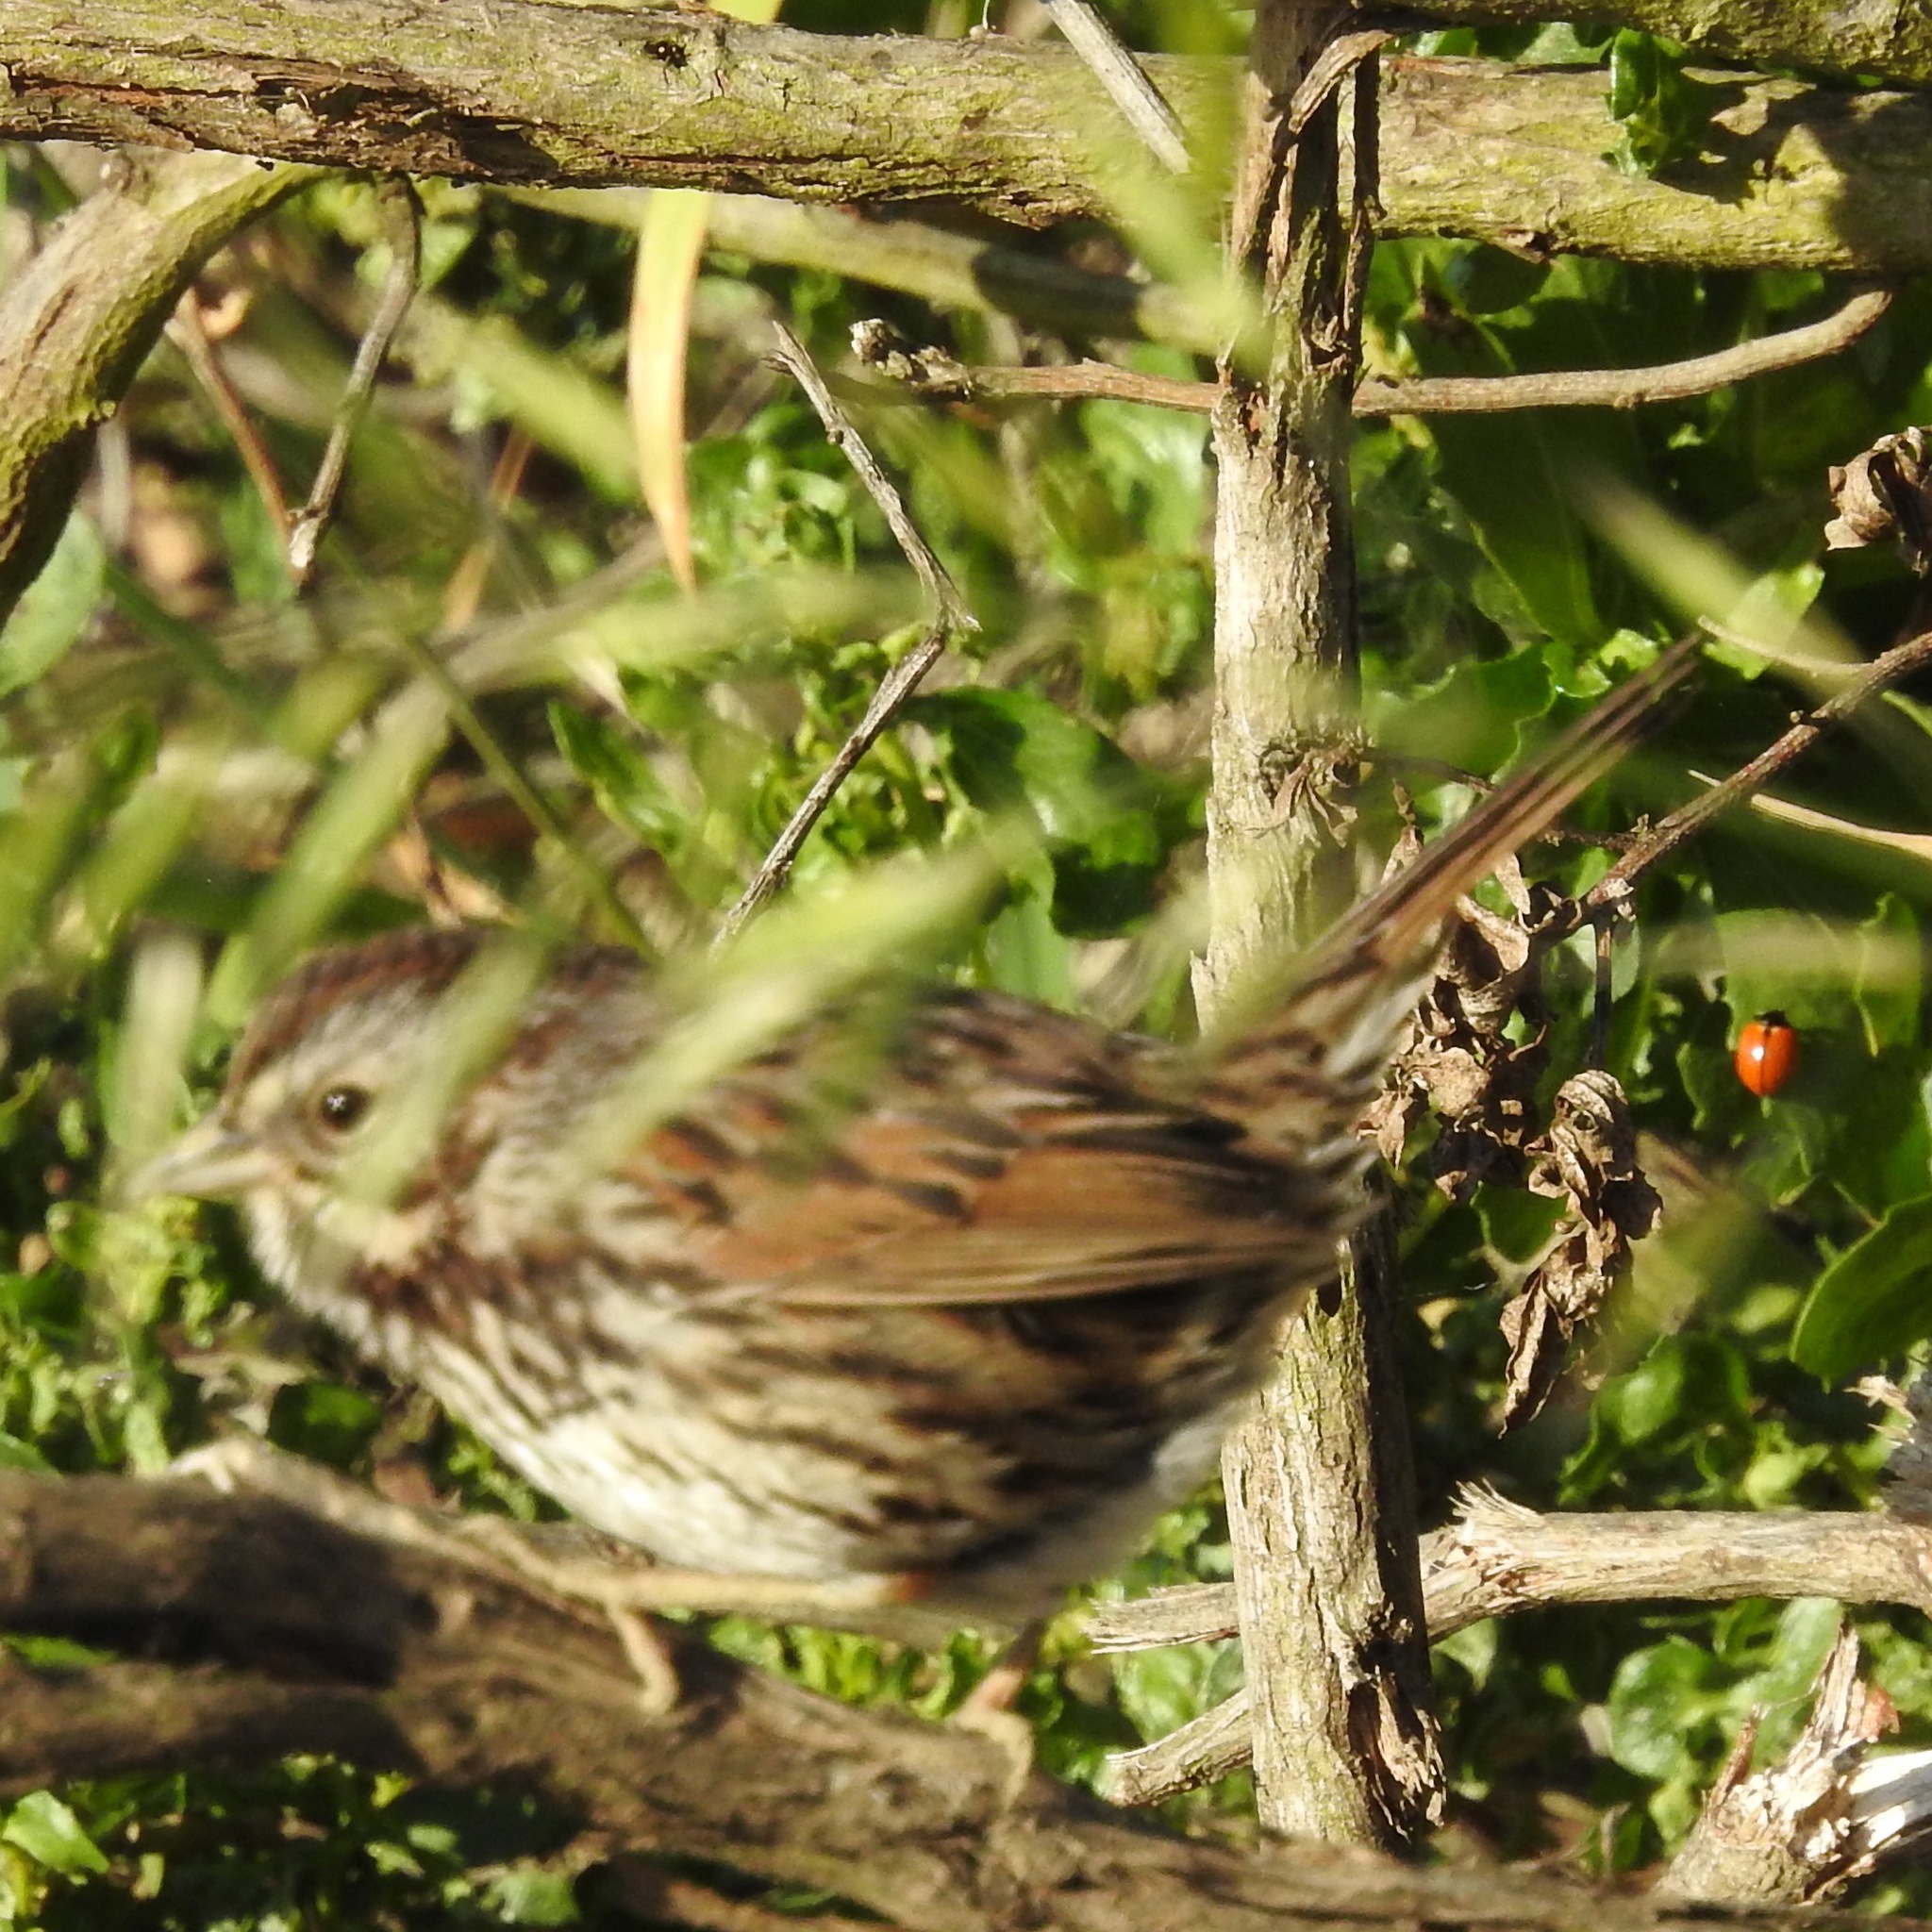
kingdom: Animalia
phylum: Arthropoda
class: Insecta
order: Coleoptera
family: Coccinellidae
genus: Coccinella
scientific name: Coccinella californica
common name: Lady beetle
